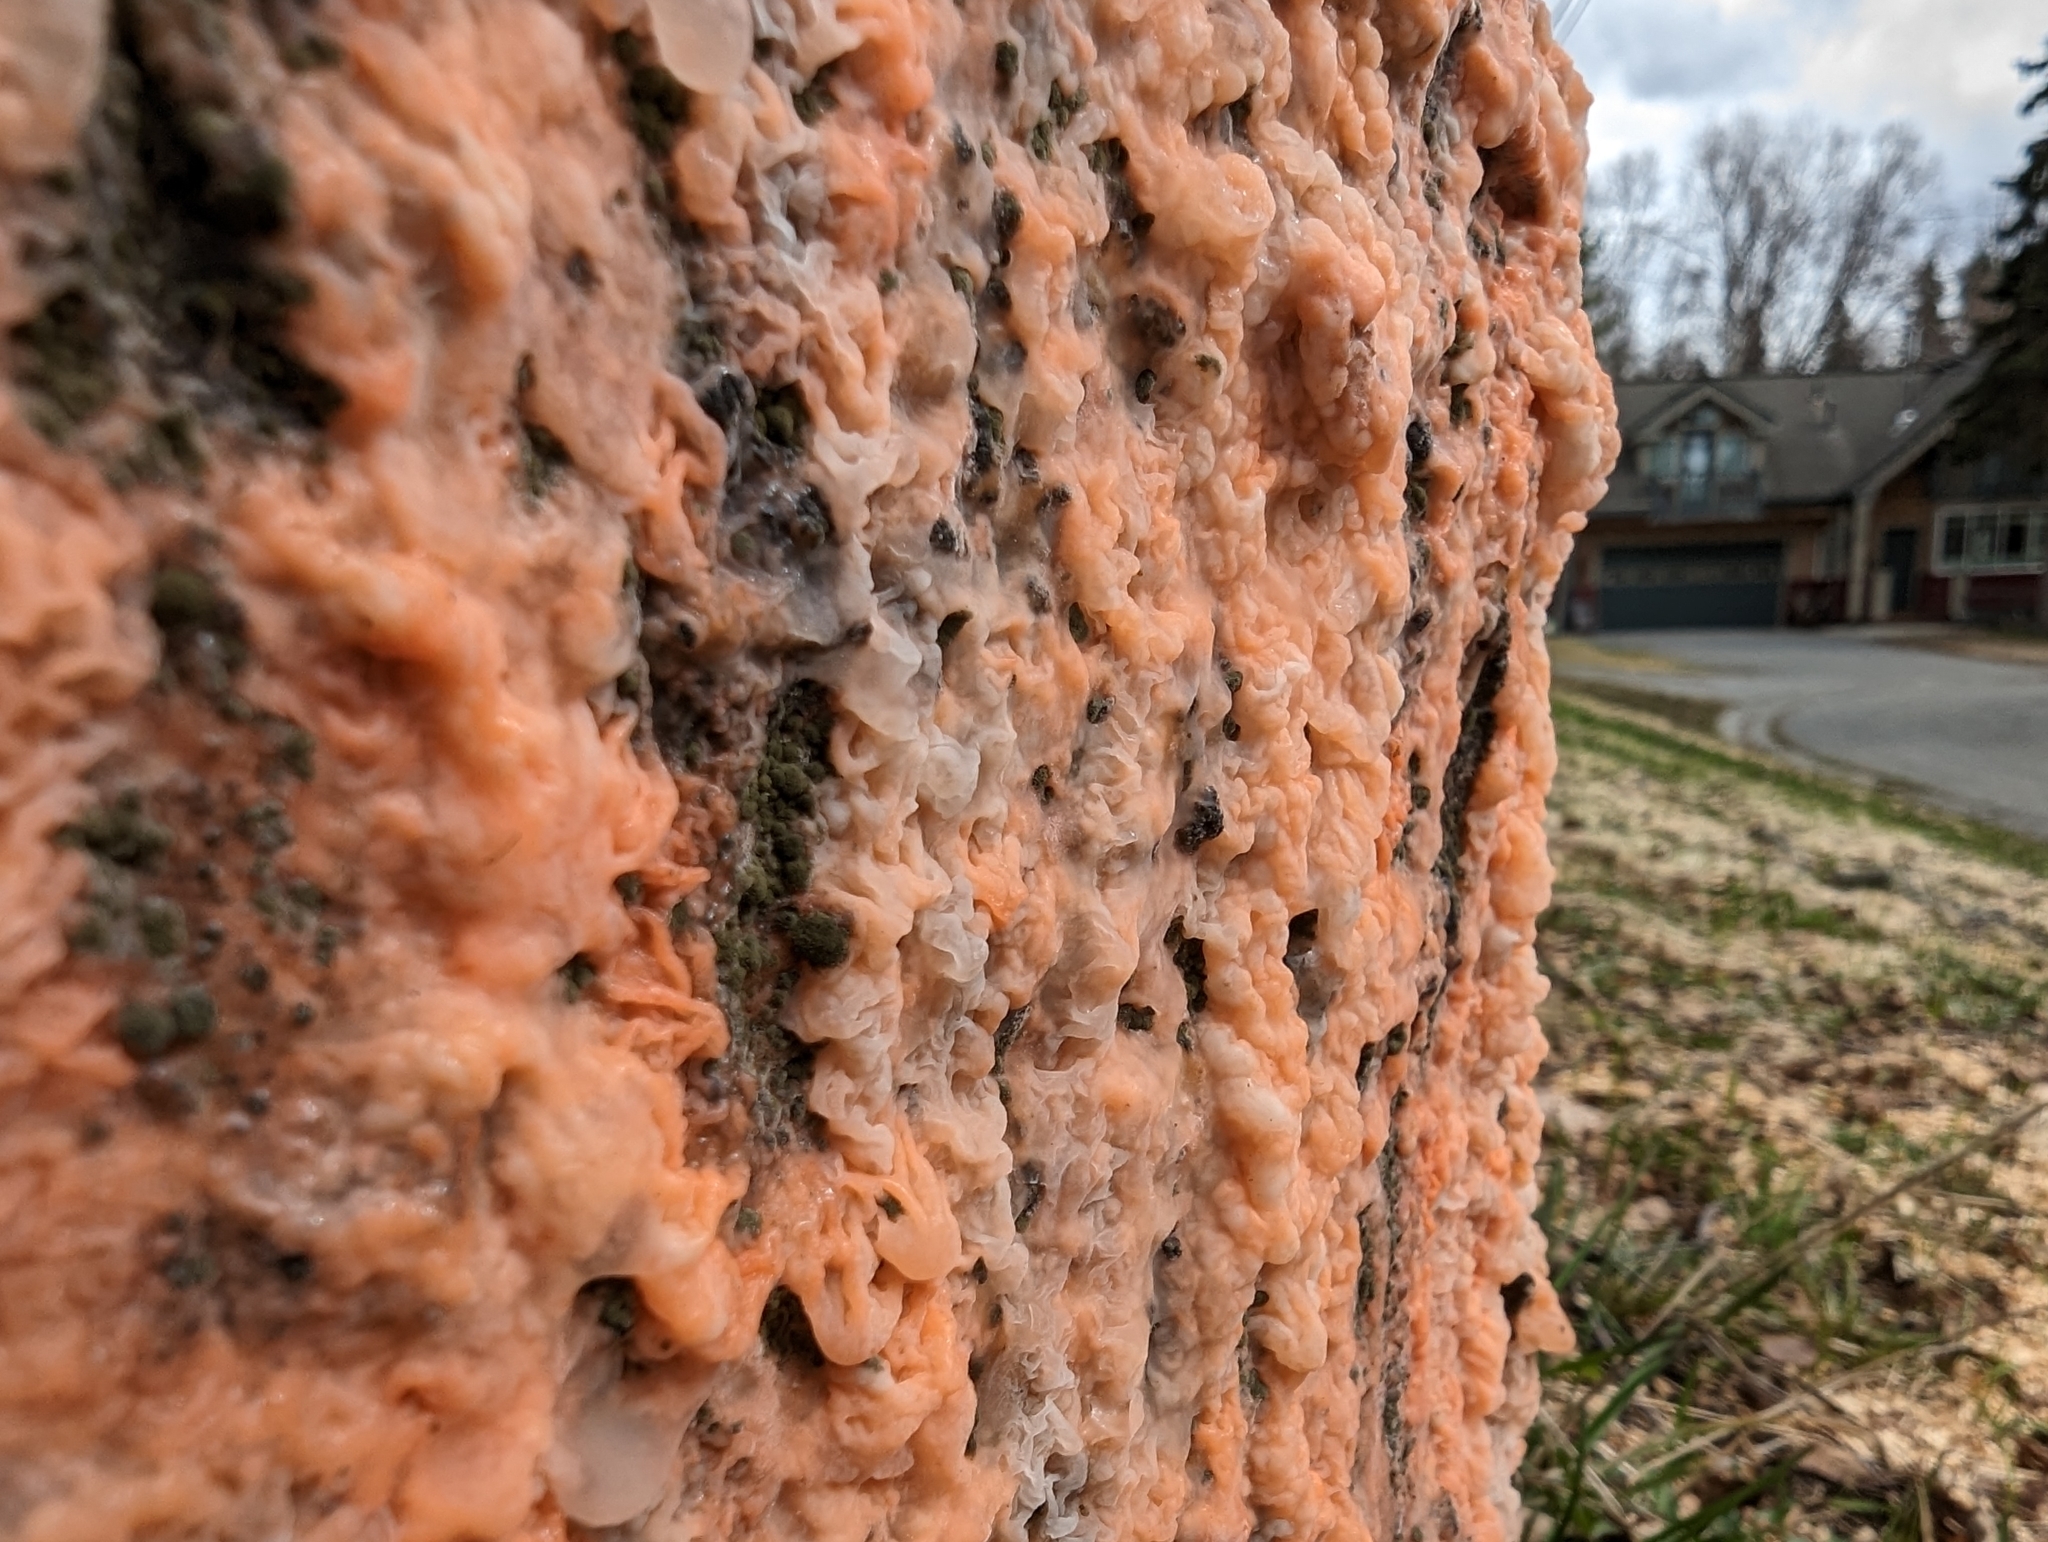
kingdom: Fungi
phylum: Basidiomycota
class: Tremellomycetes
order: Cystofilobasidiales
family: Cystofilobasidiaceae
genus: Cystofilobasidium
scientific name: Cystofilobasidium macerans
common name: Sap yeast
